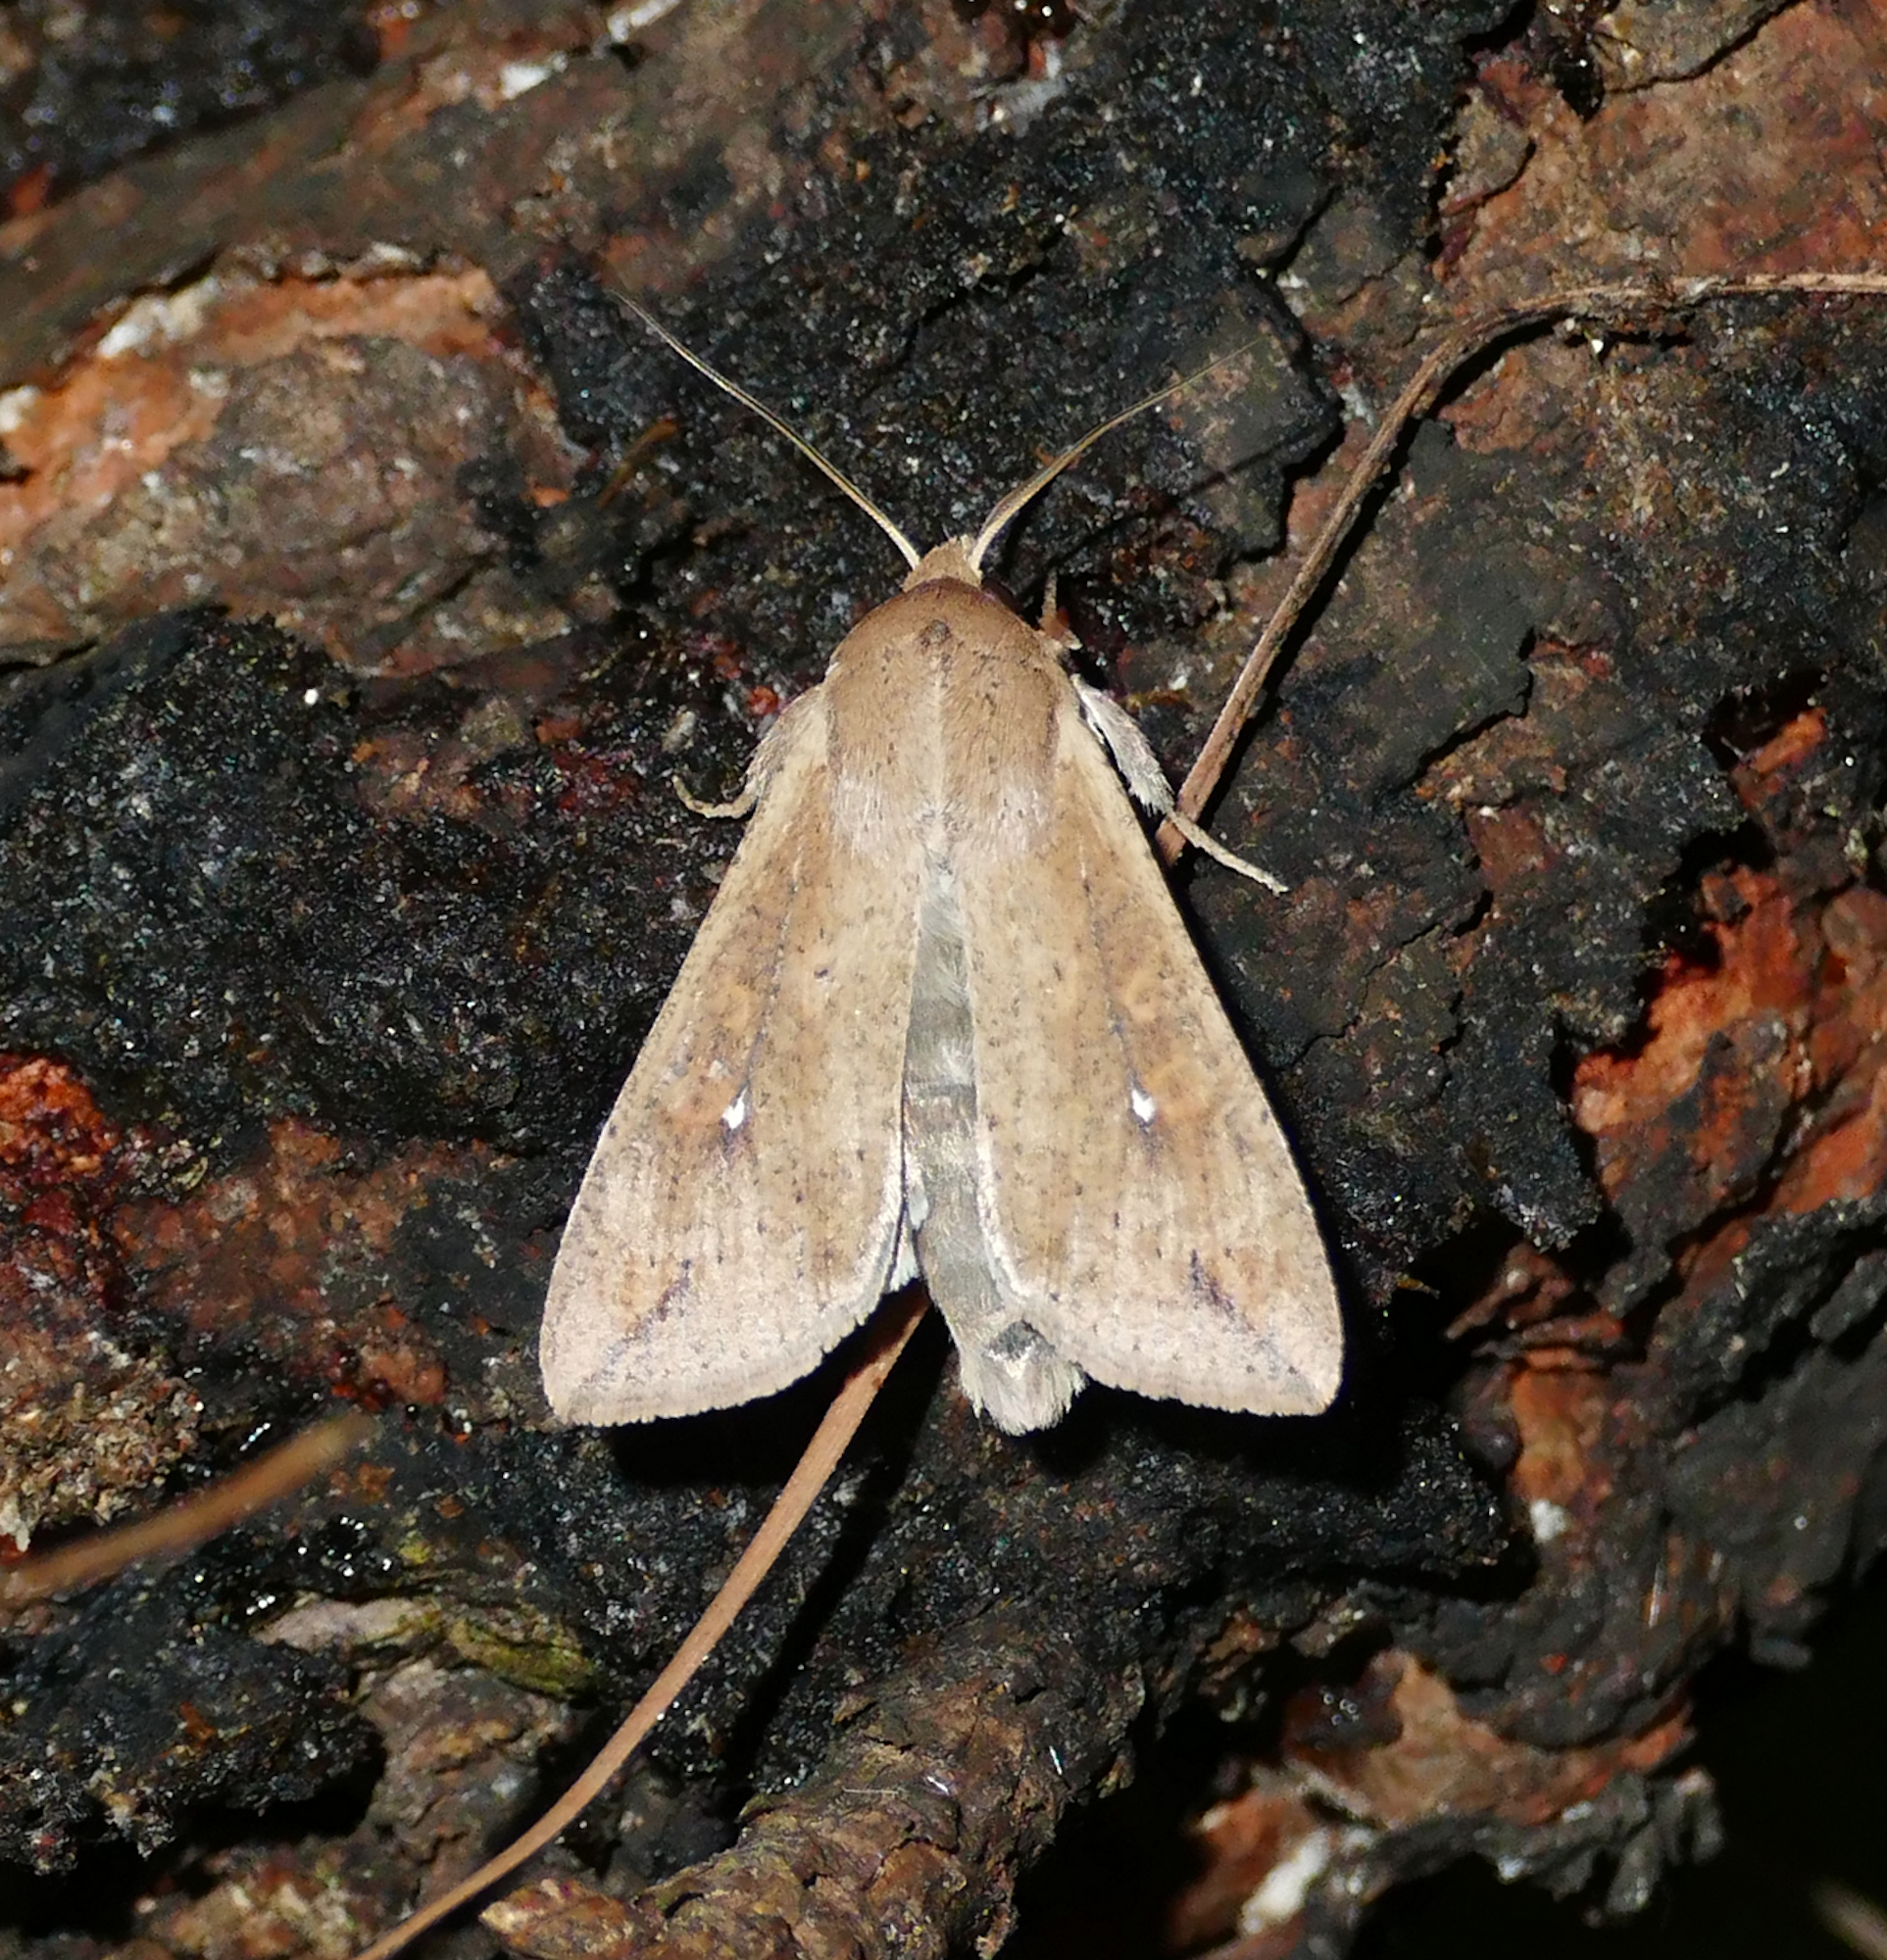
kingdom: Animalia
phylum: Arthropoda
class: Insecta
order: Lepidoptera
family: Noctuidae
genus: Mythimna
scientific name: Mythimna unipuncta
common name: White-speck
